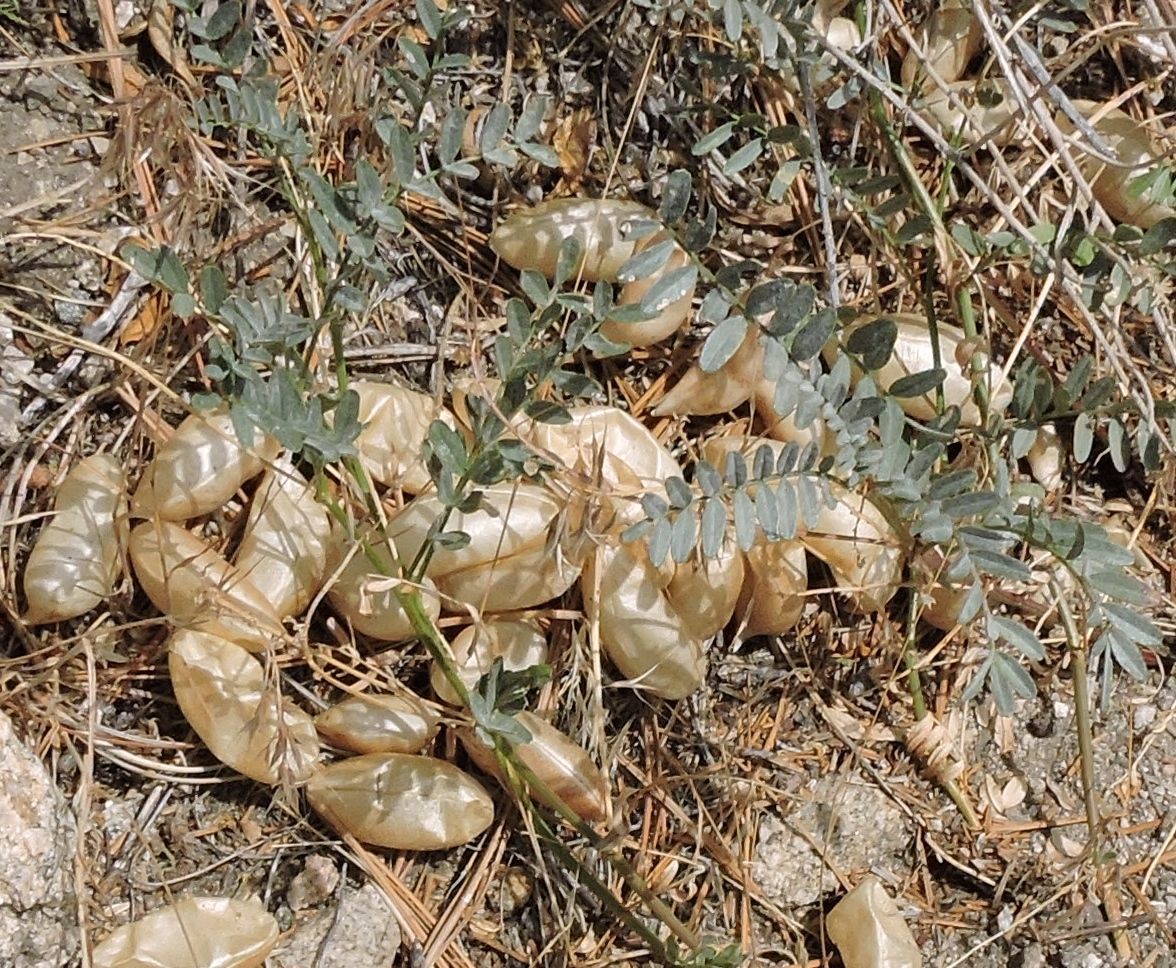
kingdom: Plantae
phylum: Tracheophyta
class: Magnoliopsida
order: Fabales
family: Fabaceae
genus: Astragalus
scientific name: Astragalus douglasii
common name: Jacumba milkvetch
